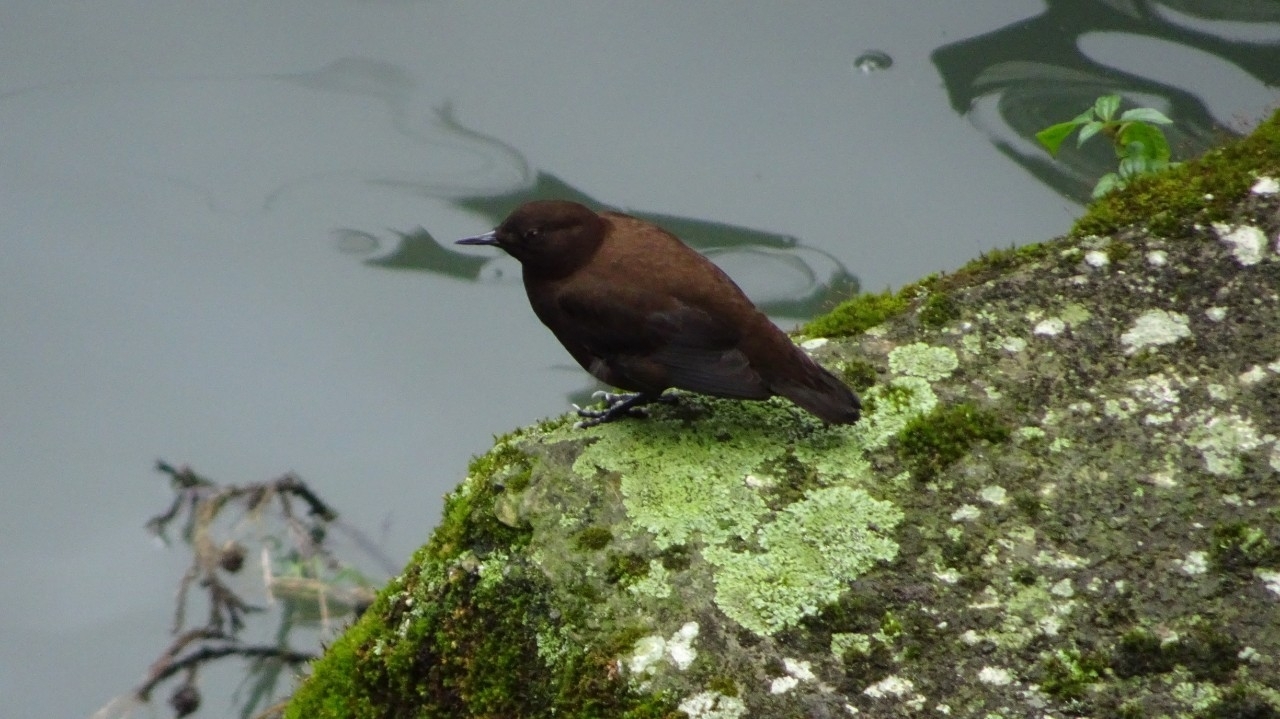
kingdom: Animalia
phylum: Chordata
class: Aves
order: Passeriformes
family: Cinclidae
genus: Cinclus
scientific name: Cinclus pallasii
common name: Brown dipper
